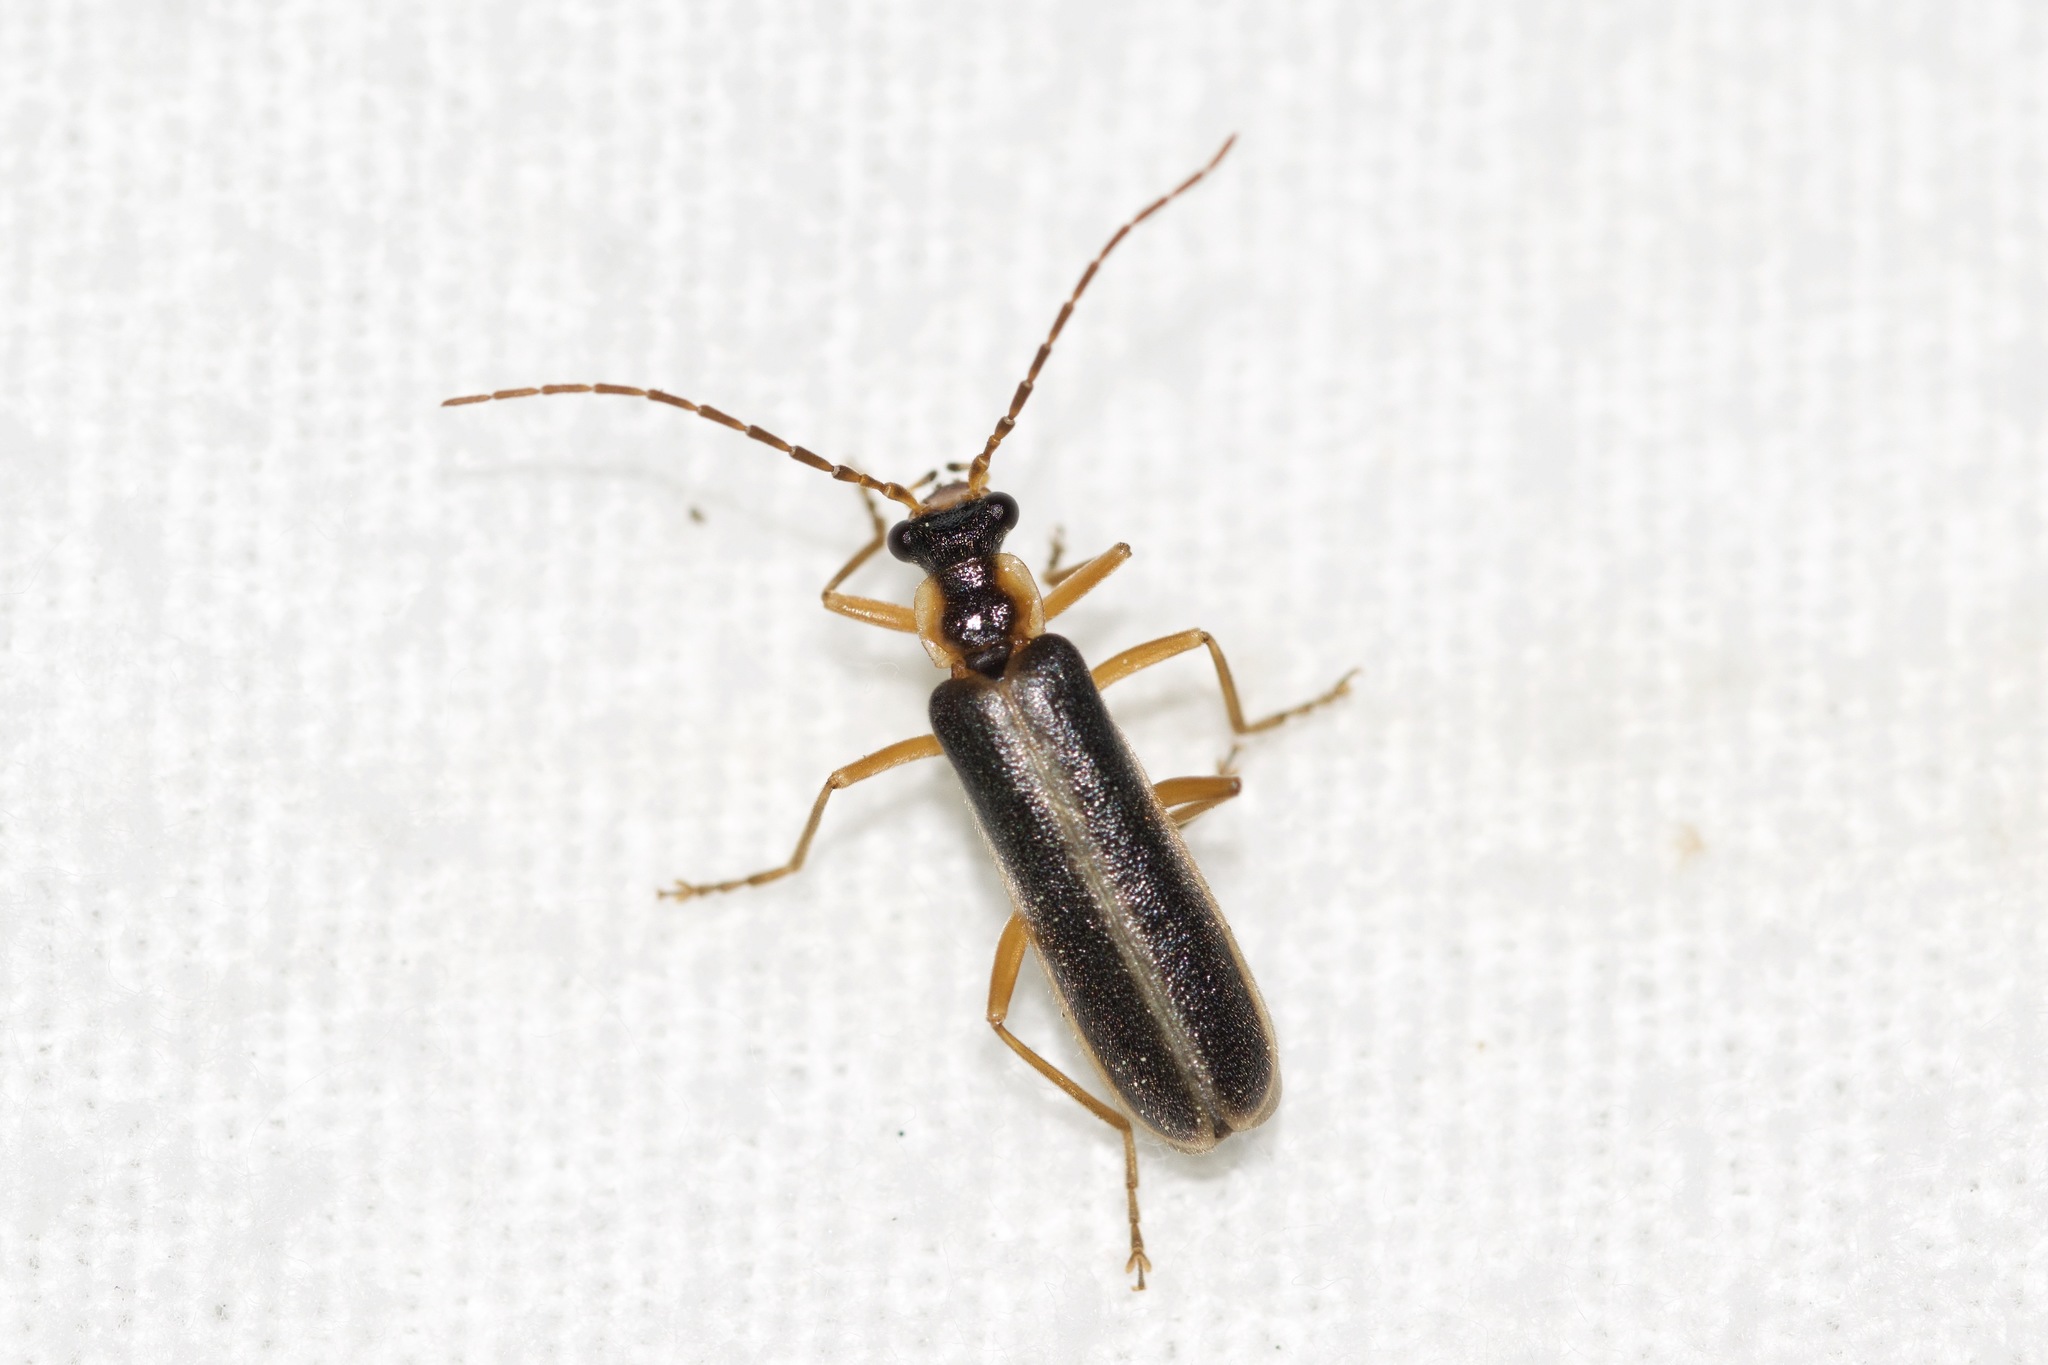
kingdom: Animalia
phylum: Arthropoda
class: Insecta
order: Coleoptera
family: Cantharidae
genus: Podabrus
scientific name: Podabrus modestus
